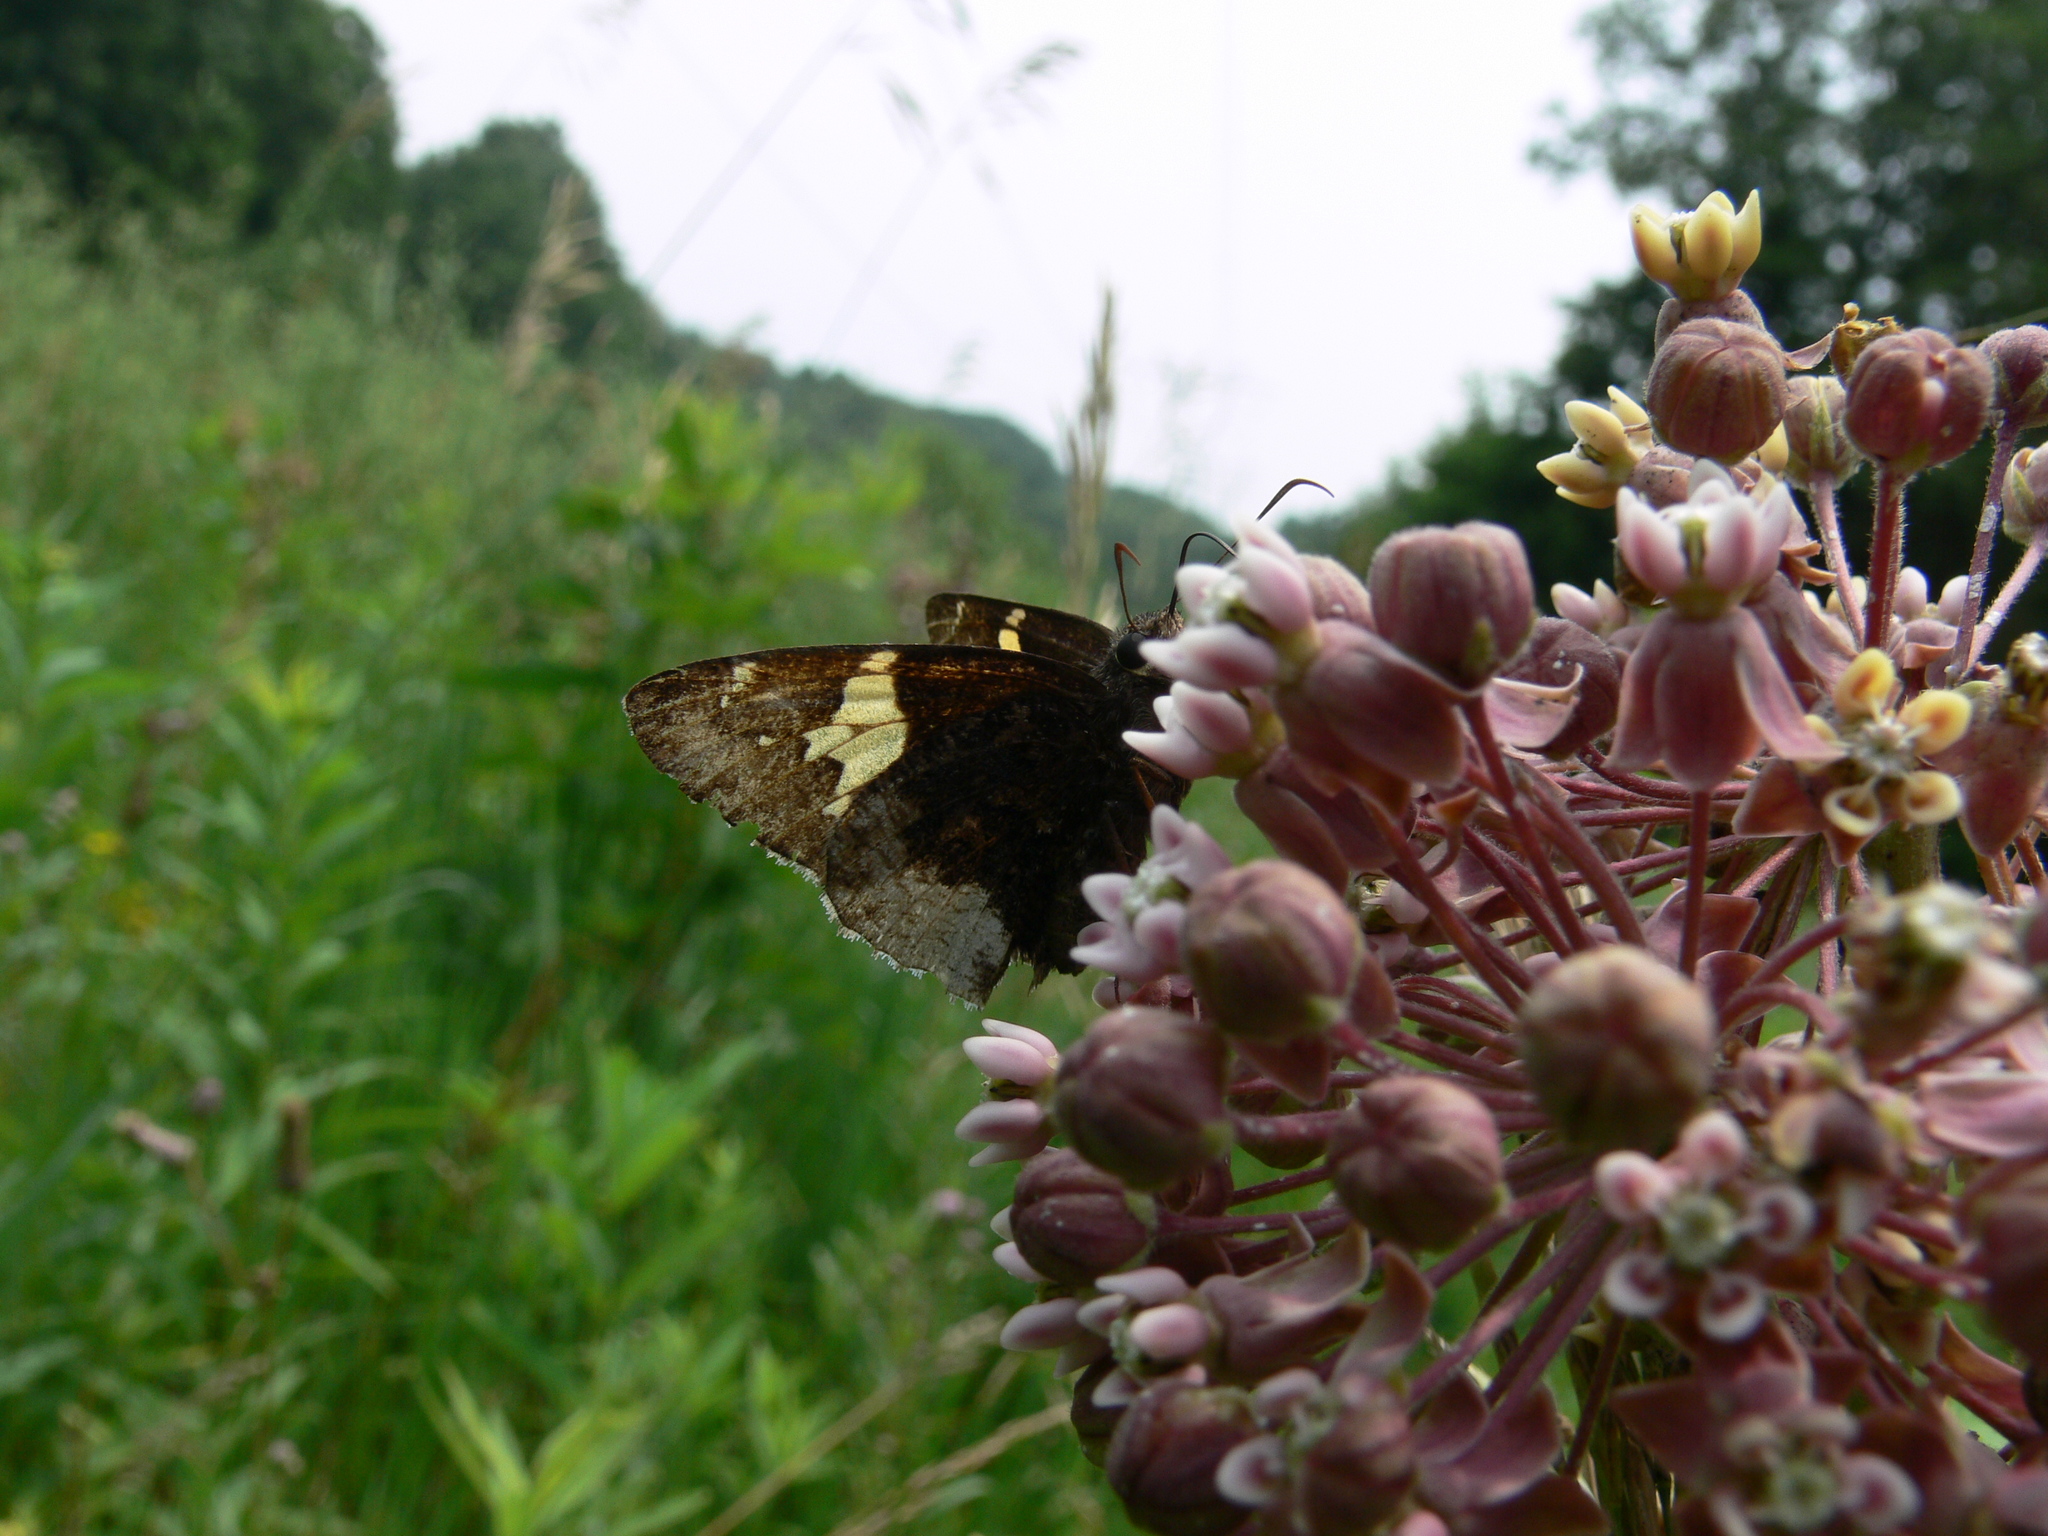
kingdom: Animalia
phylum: Arthropoda
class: Insecta
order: Lepidoptera
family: Hesperiidae
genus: Thorybes
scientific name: Thorybes lyciades
